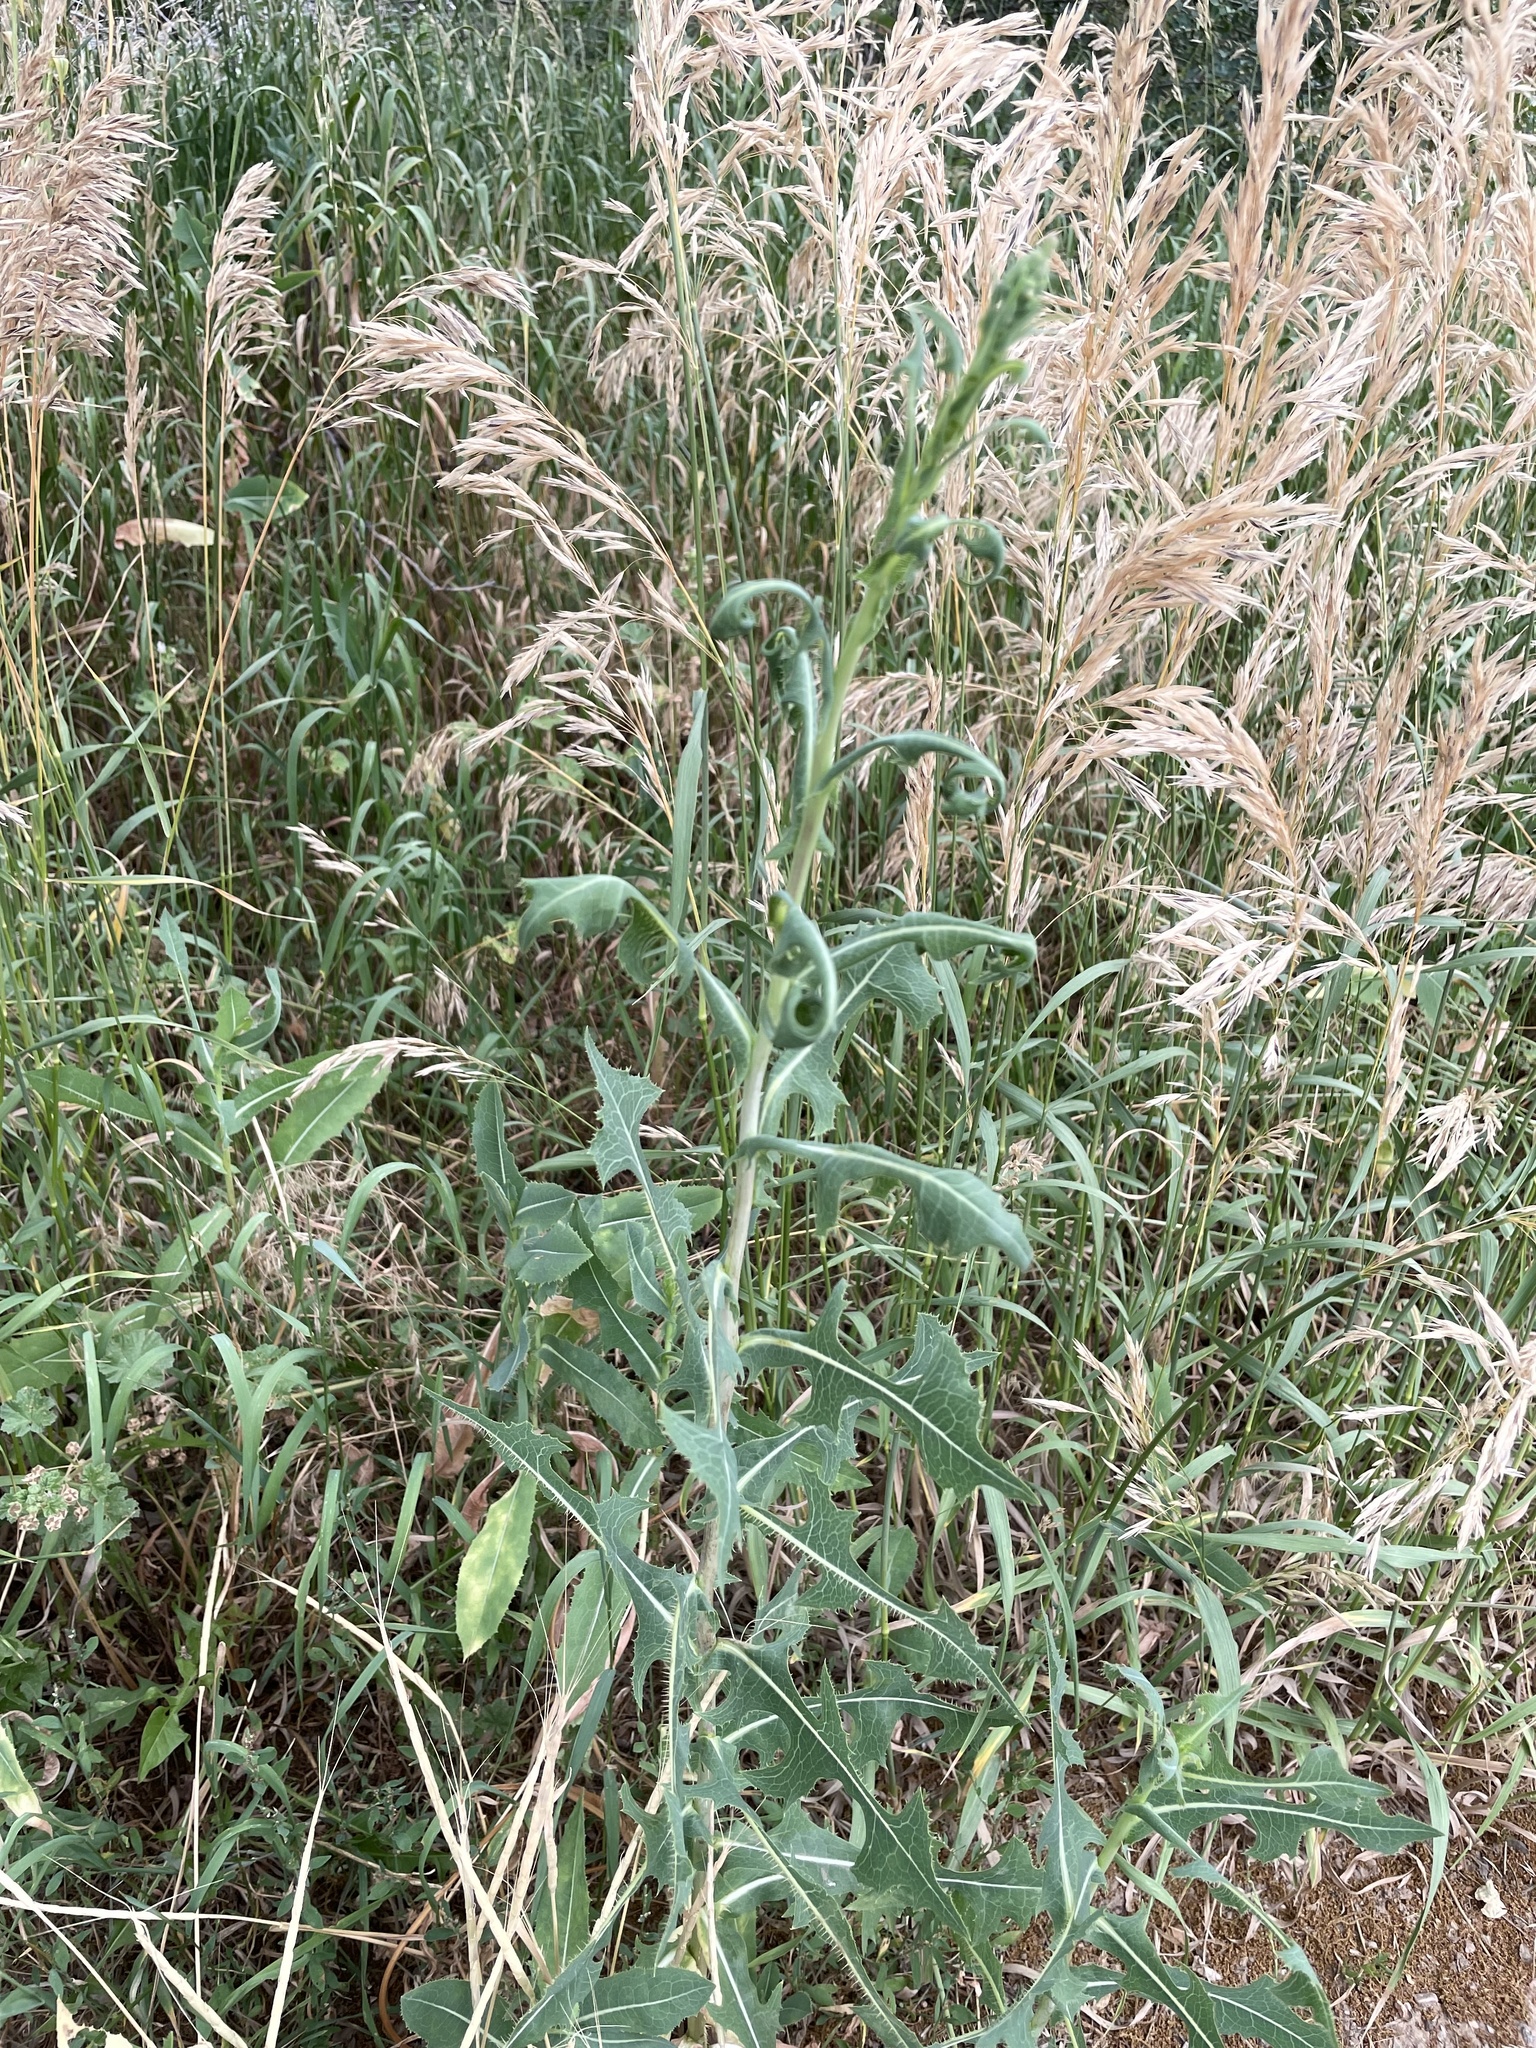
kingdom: Plantae
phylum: Tracheophyta
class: Magnoliopsida
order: Asterales
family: Asteraceae
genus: Lactuca
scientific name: Lactuca serriola
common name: Prickly lettuce
